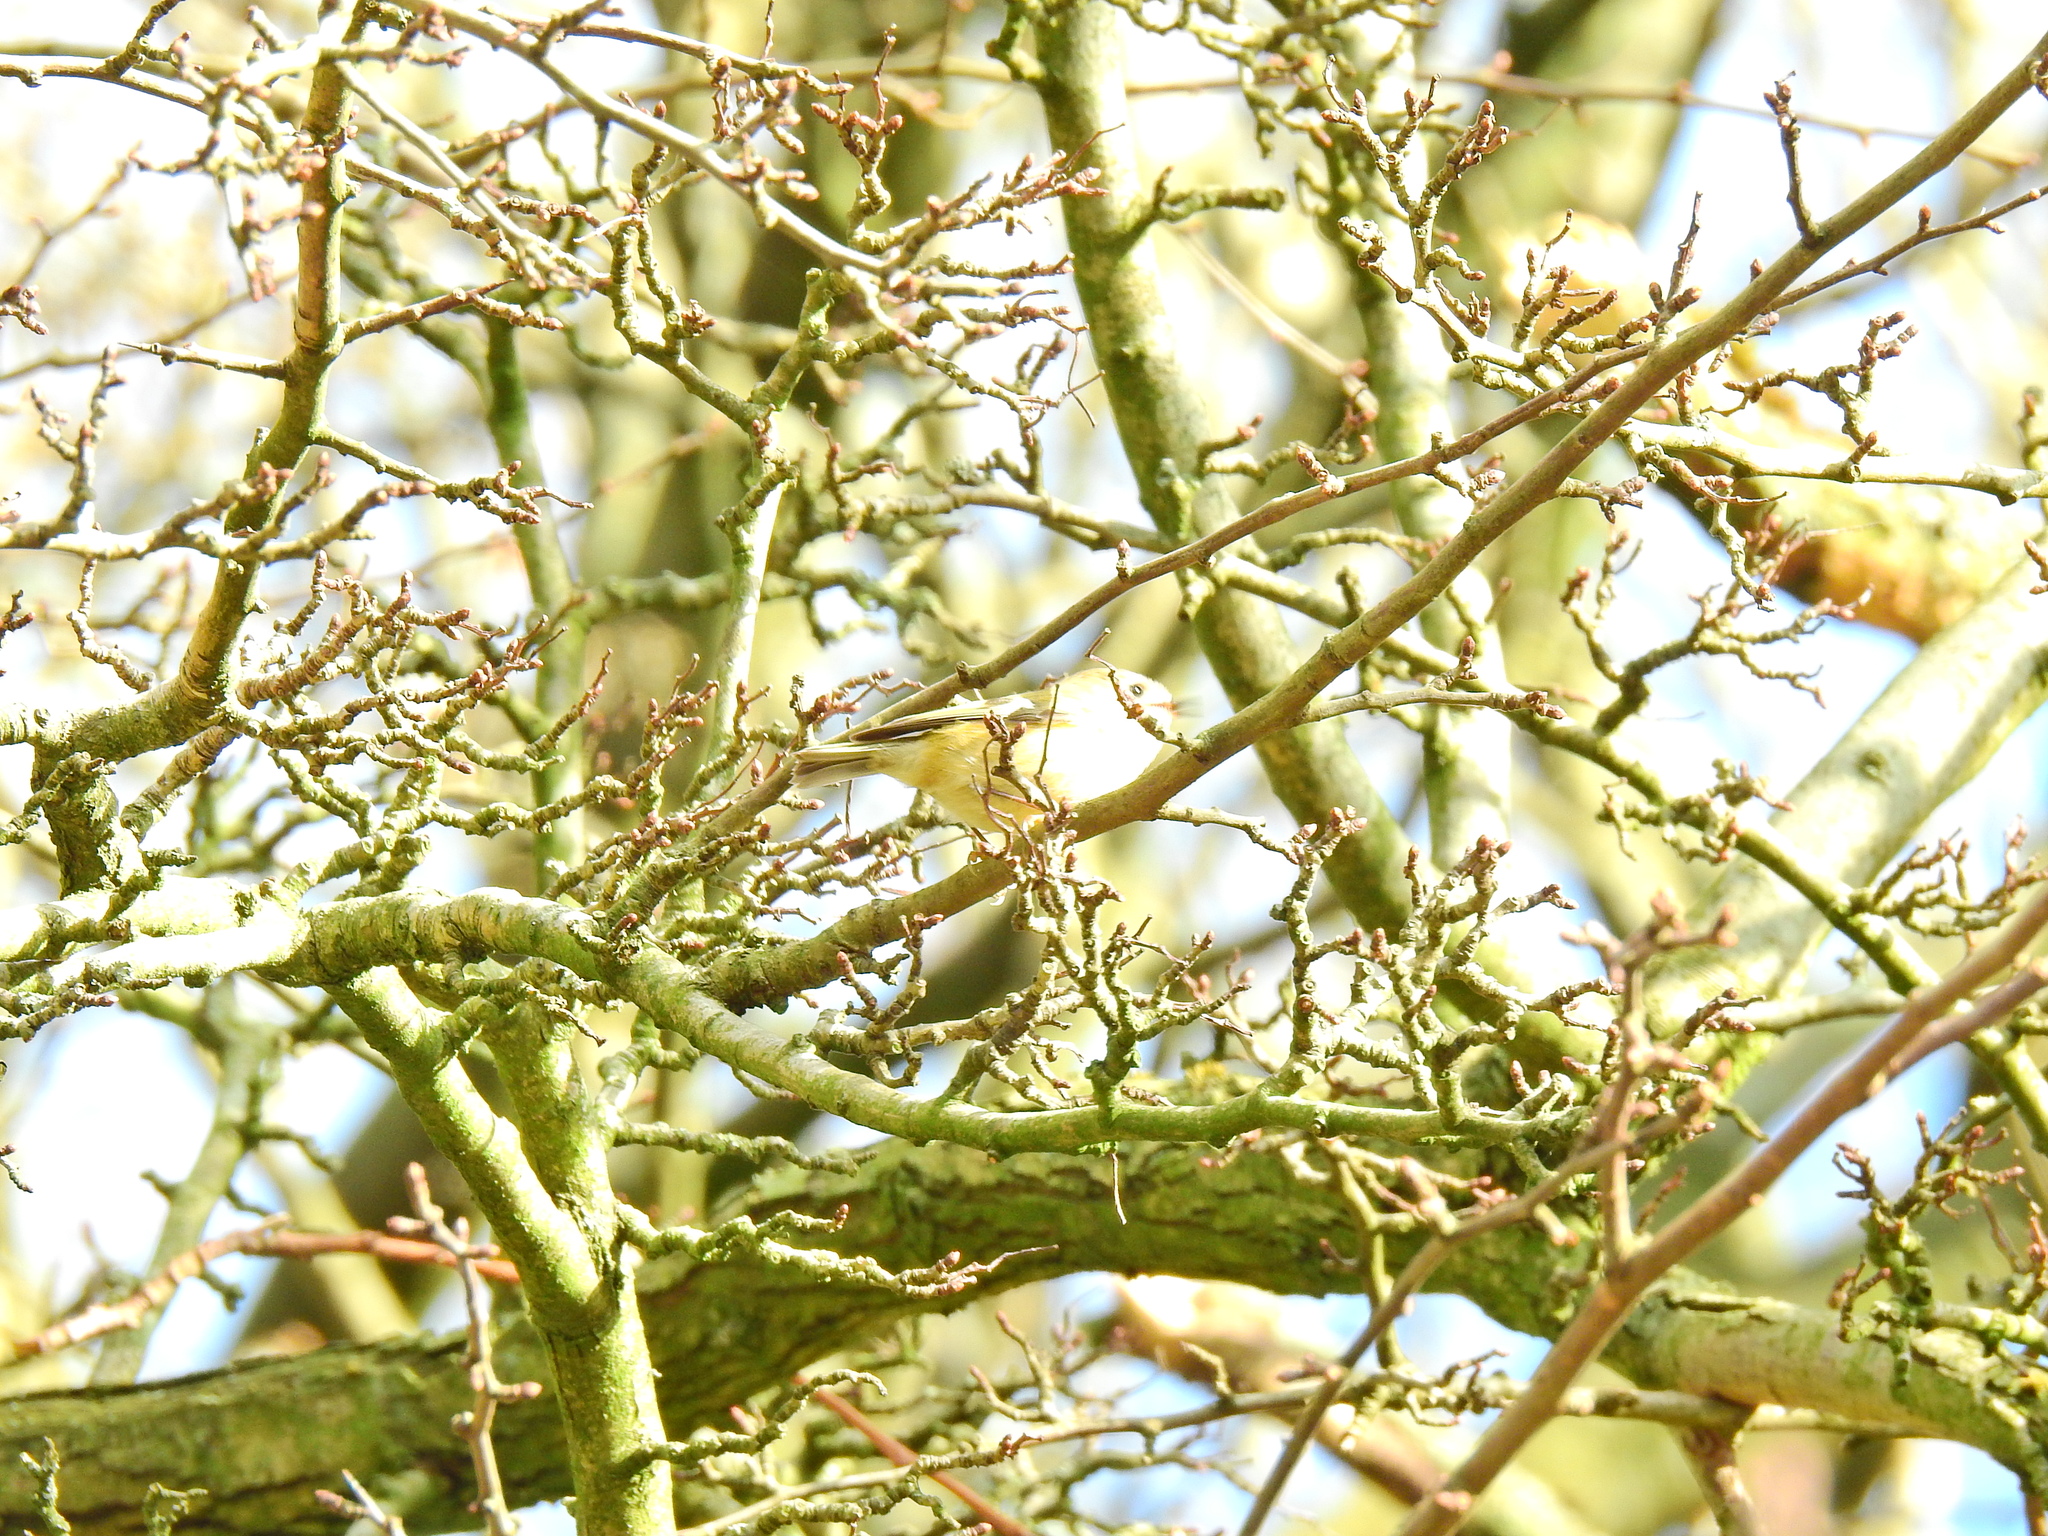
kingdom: Animalia
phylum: Chordata
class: Aves
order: Passeriformes
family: Regulidae
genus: Regulus
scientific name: Regulus regulus
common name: Goldcrest
